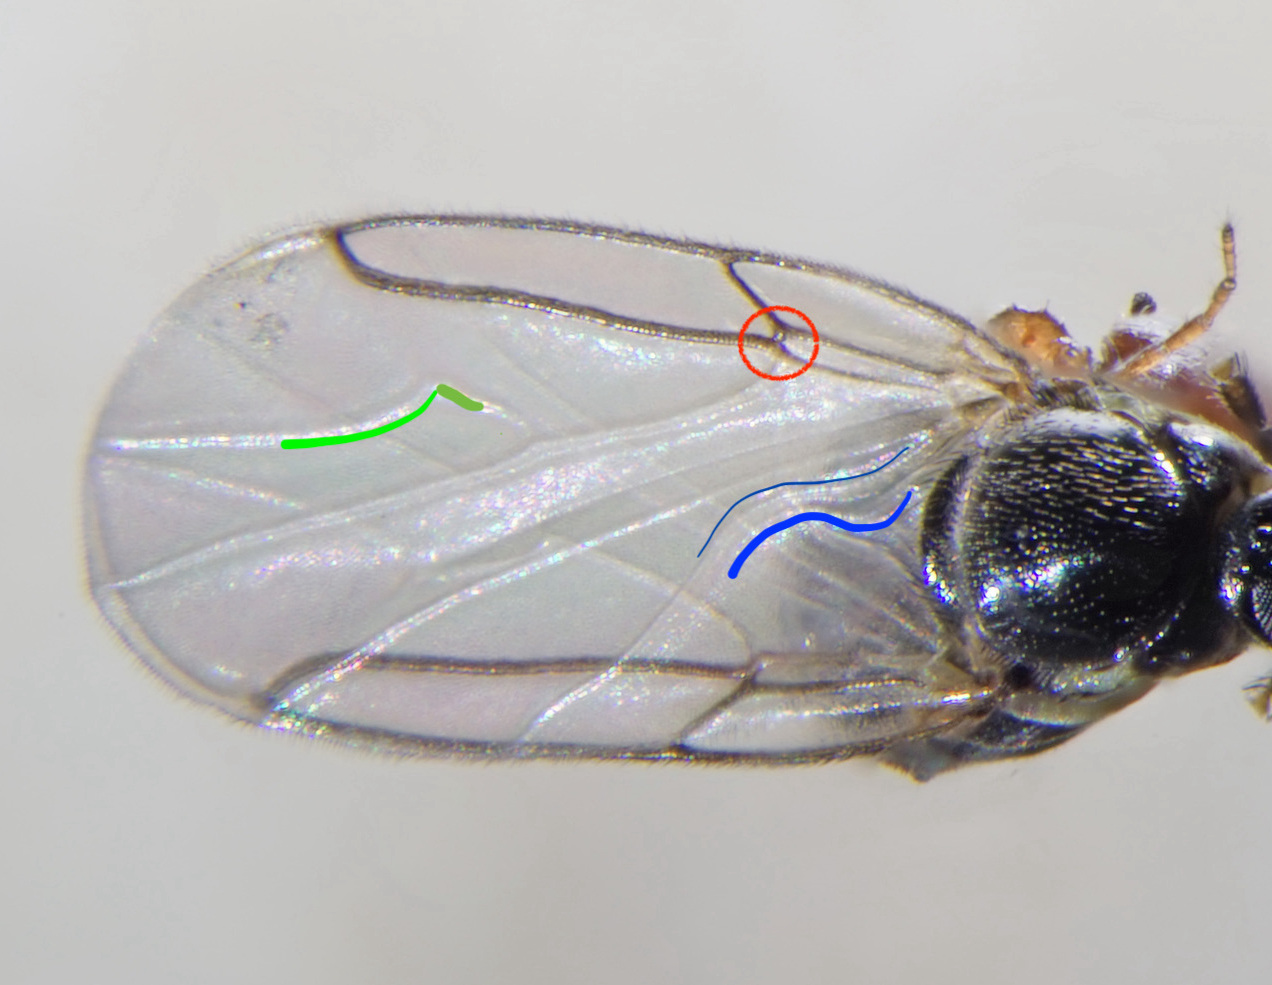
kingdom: Animalia
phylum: Arthropoda
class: Insecta
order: Diptera
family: Scatopsidae
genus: Scatopse
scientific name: Scatopse notata
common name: Minute black scavenger fly
